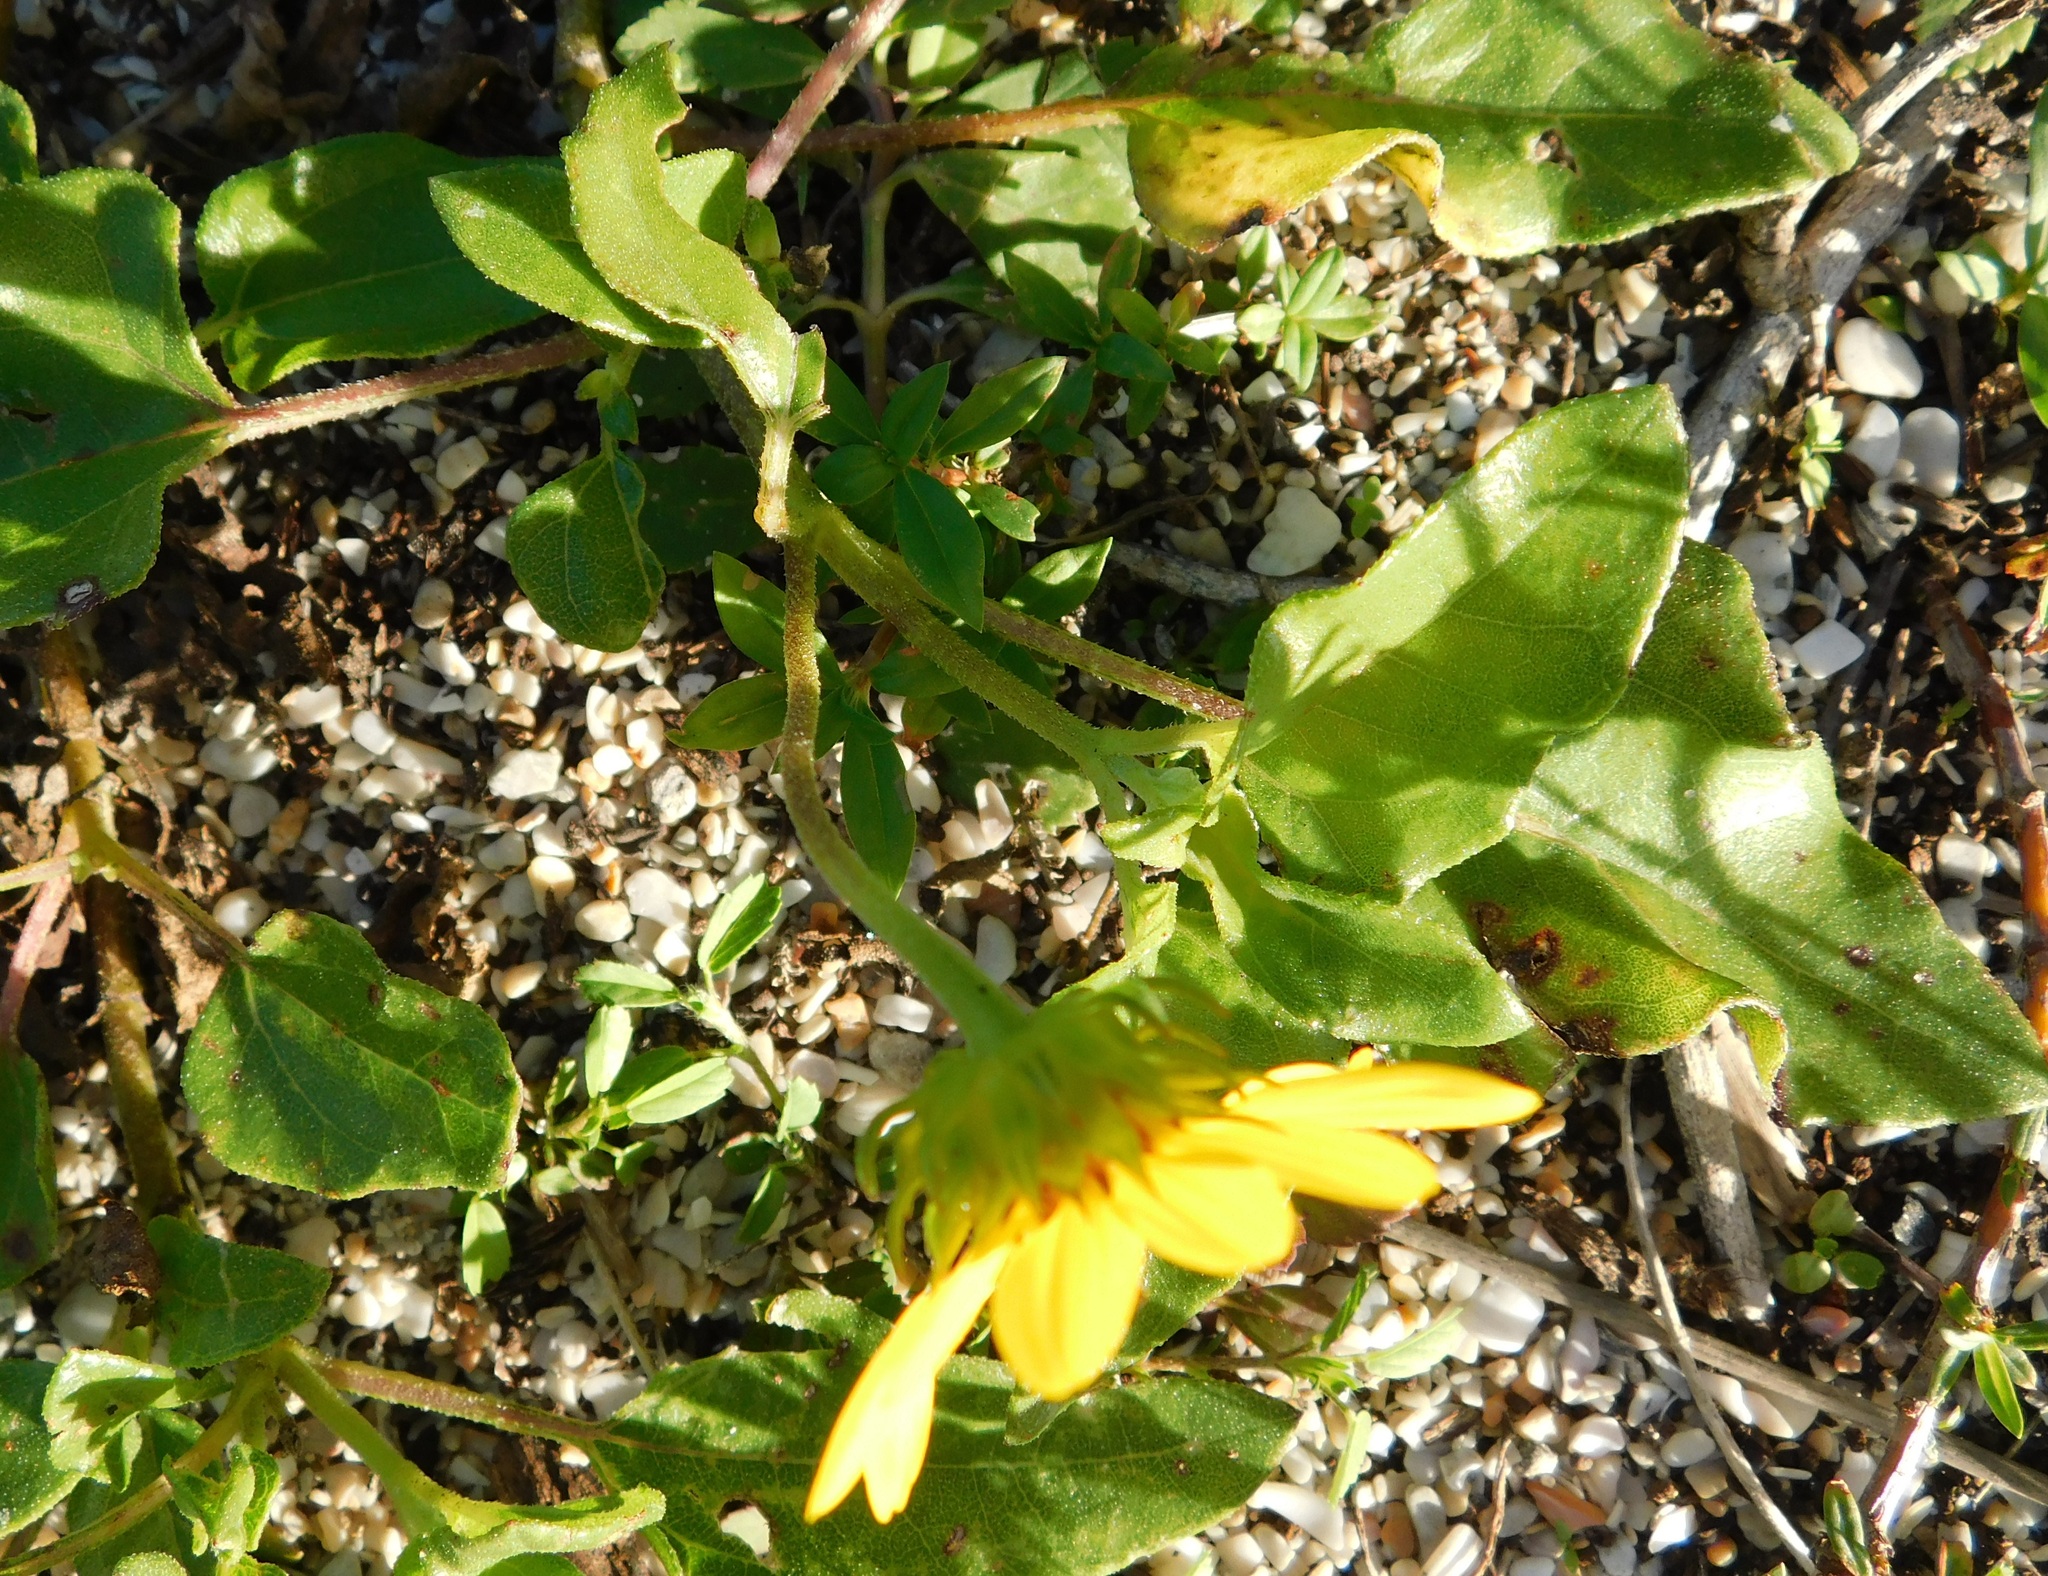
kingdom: Plantae
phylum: Tracheophyta
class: Magnoliopsida
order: Asterales
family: Asteraceae
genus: Helianthus
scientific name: Helianthus debilis
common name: Weak sunflower
